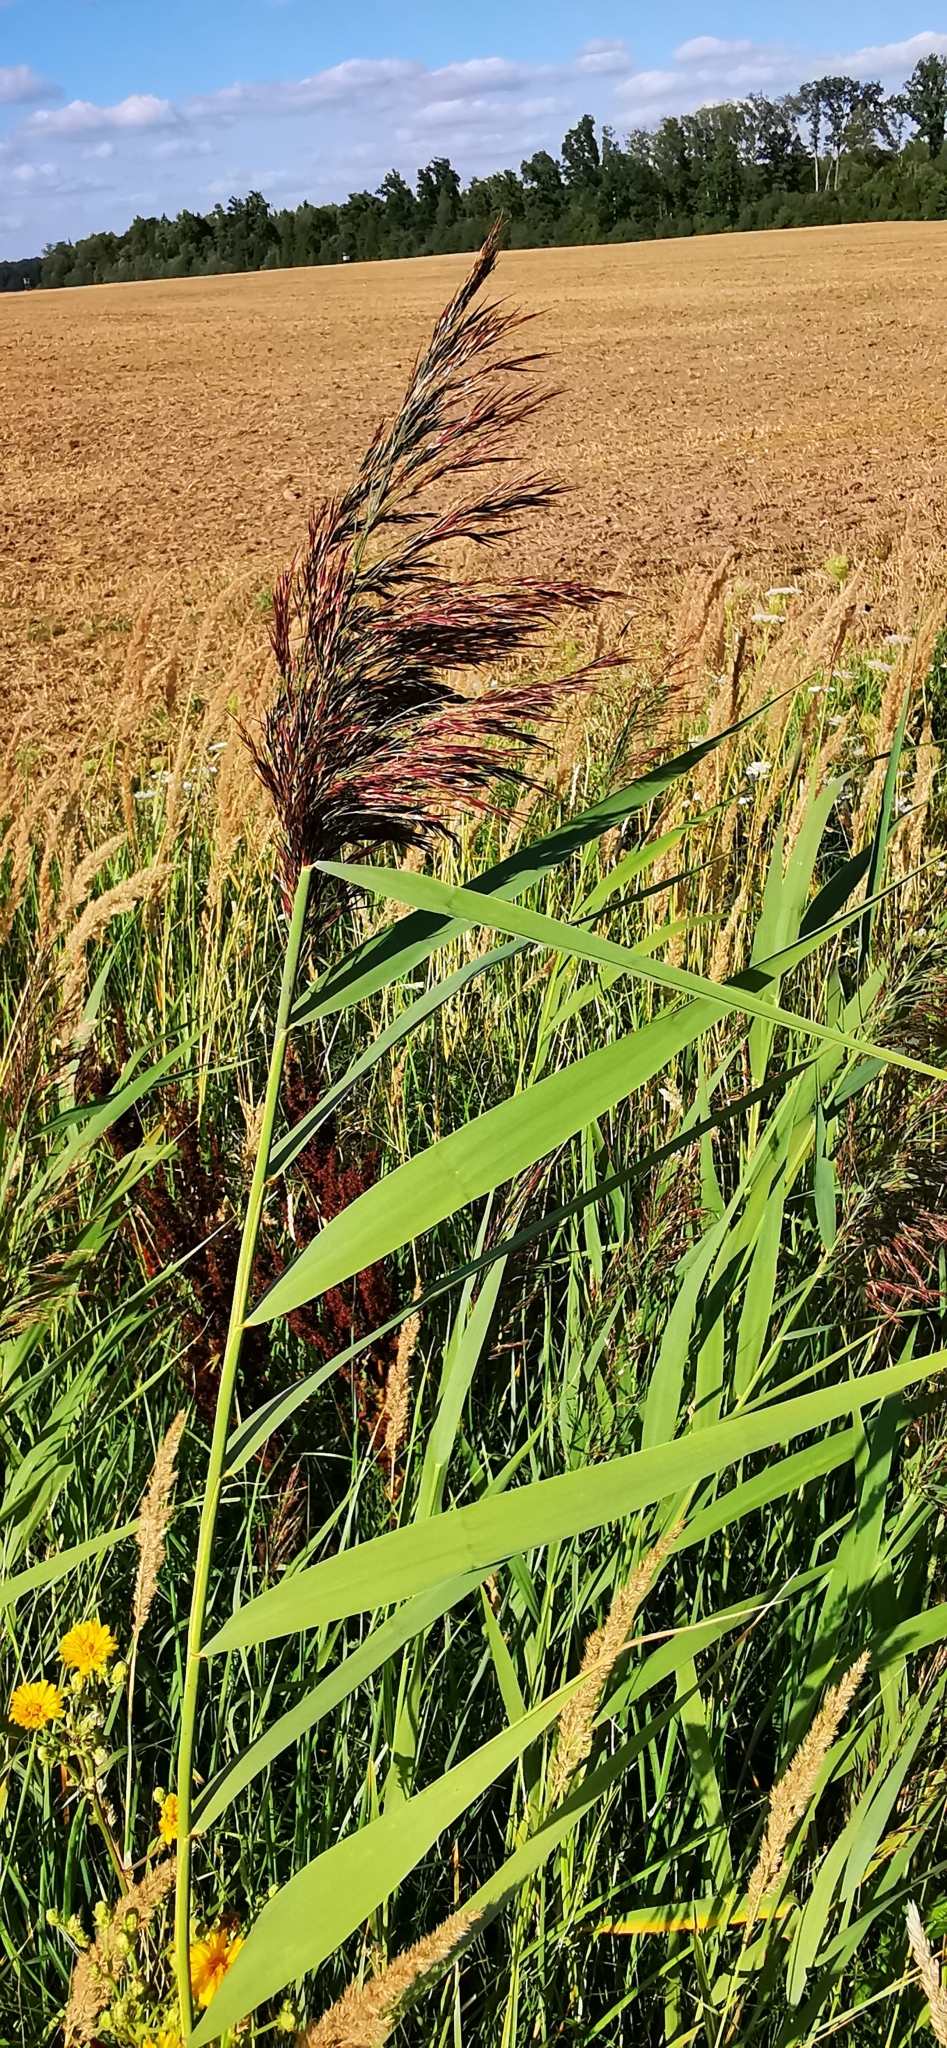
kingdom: Plantae
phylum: Tracheophyta
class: Liliopsida
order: Poales
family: Poaceae
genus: Phragmites
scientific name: Phragmites australis
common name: Common reed
